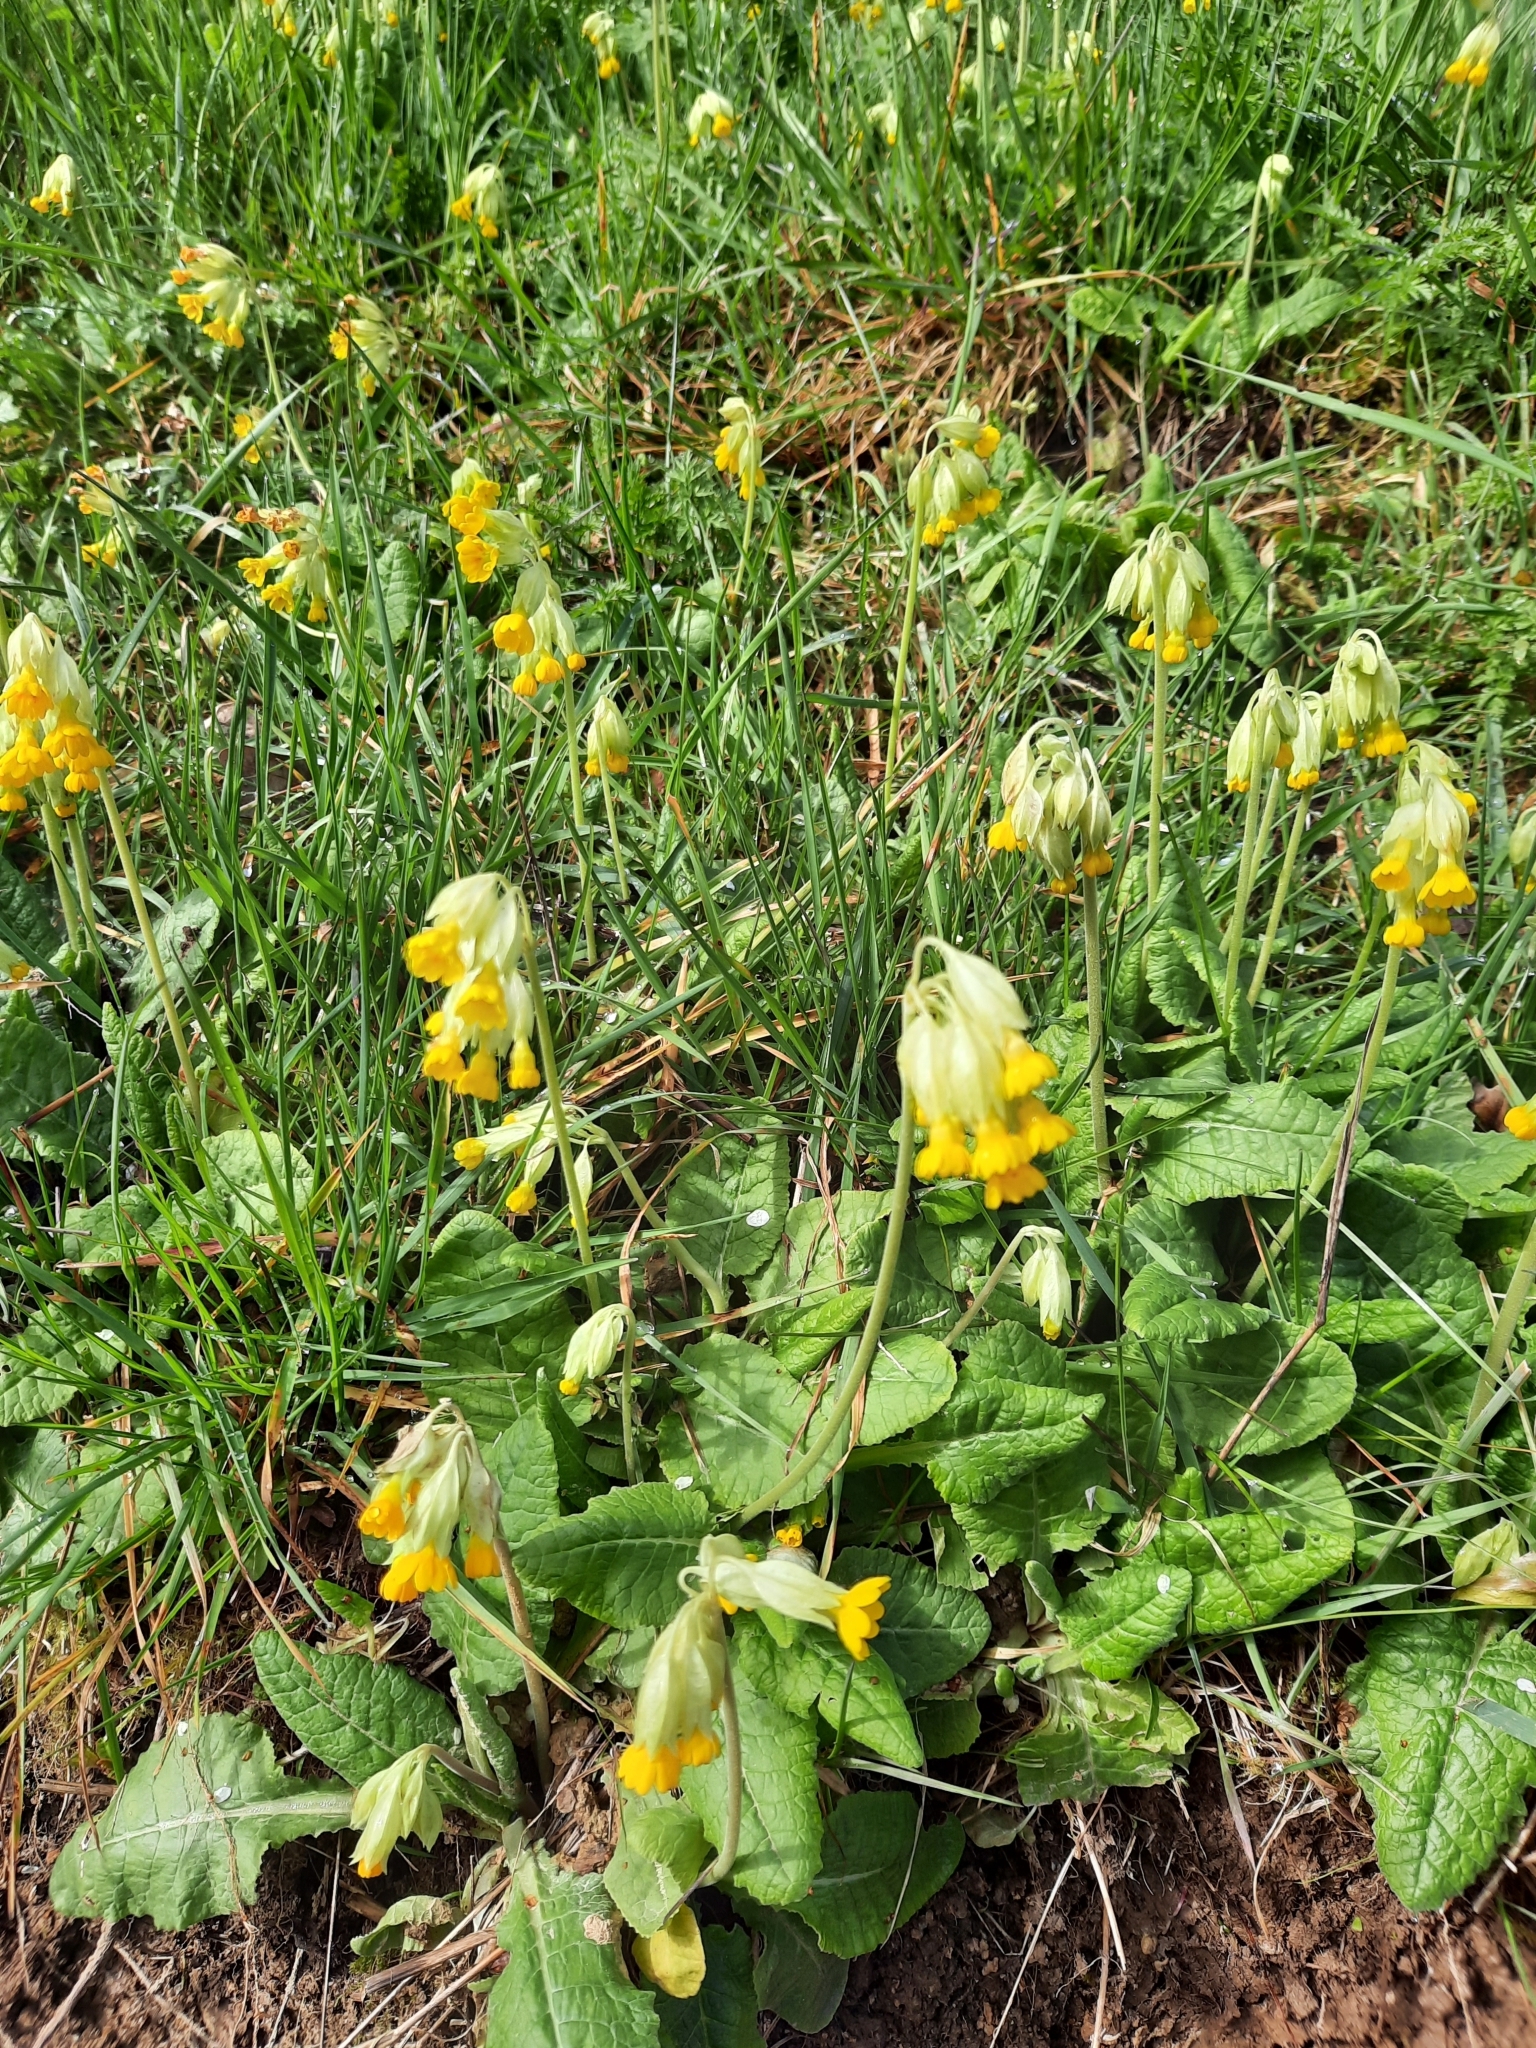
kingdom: Plantae
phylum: Tracheophyta
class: Magnoliopsida
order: Ericales
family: Primulaceae
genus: Primula
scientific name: Primula veris
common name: Cowslip
